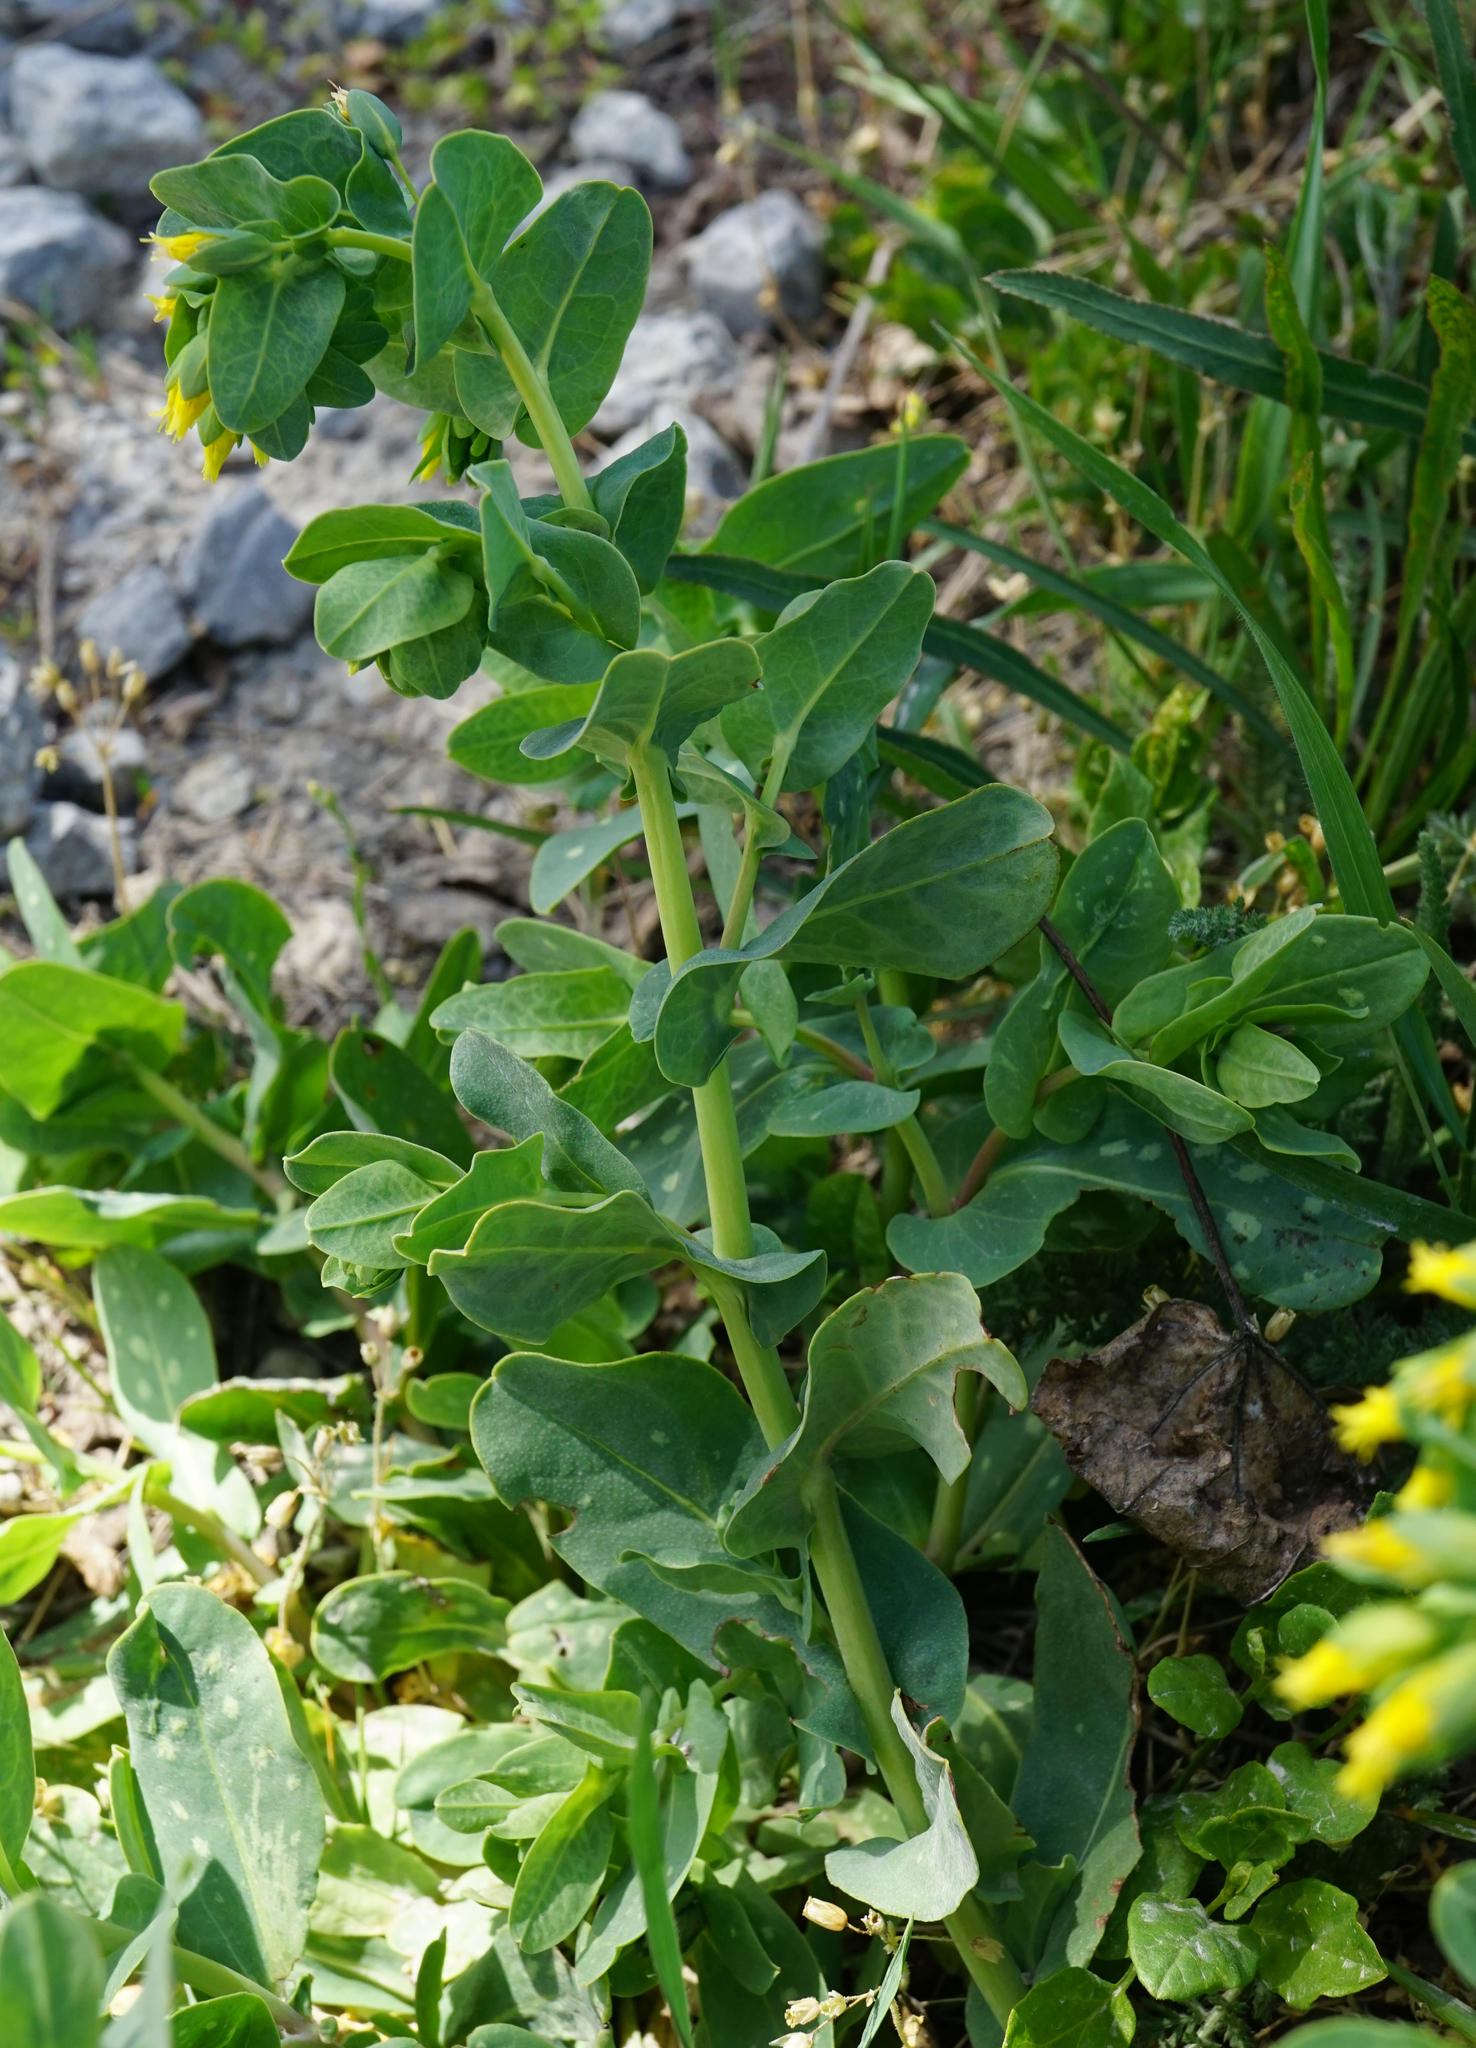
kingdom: Plantae
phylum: Tracheophyta
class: Magnoliopsida
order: Boraginales
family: Boraginaceae
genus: Cerinthe
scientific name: Cerinthe minor
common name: Lesser honeywort
